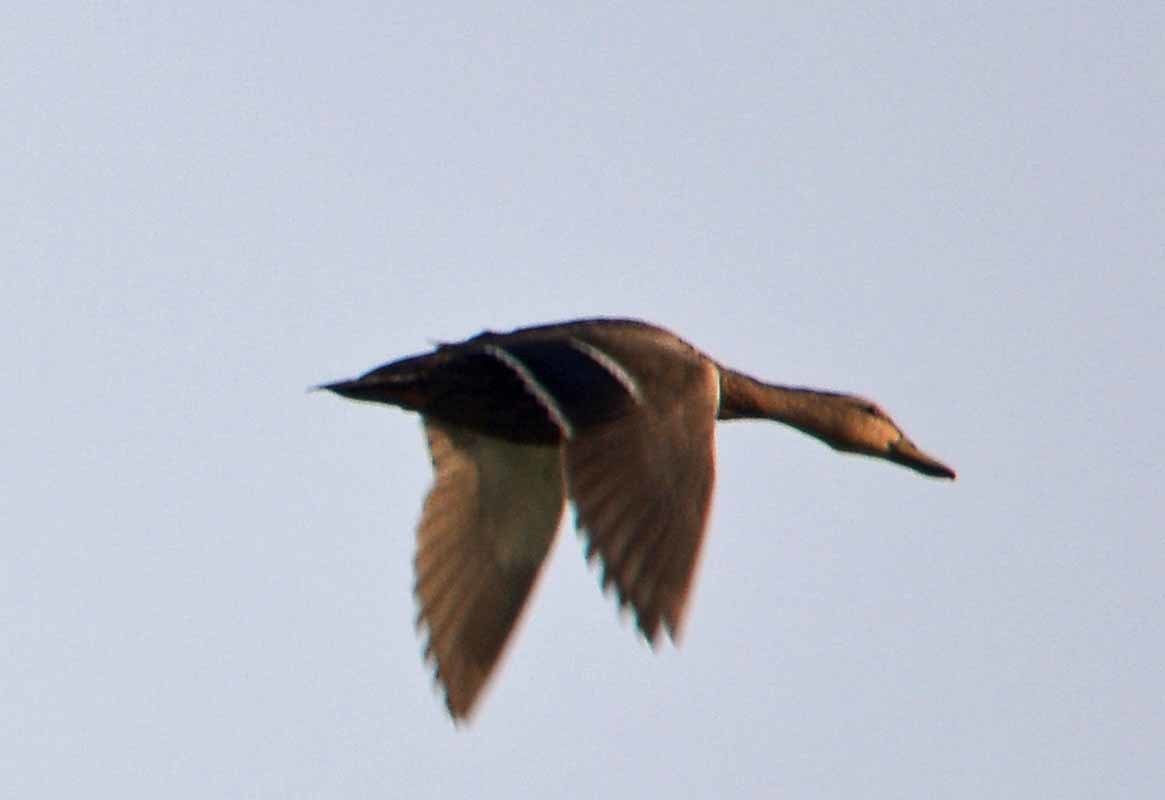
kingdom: Animalia
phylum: Chordata
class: Aves
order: Anseriformes
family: Anatidae
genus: Anas
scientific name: Anas diazi
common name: Mexican duck
